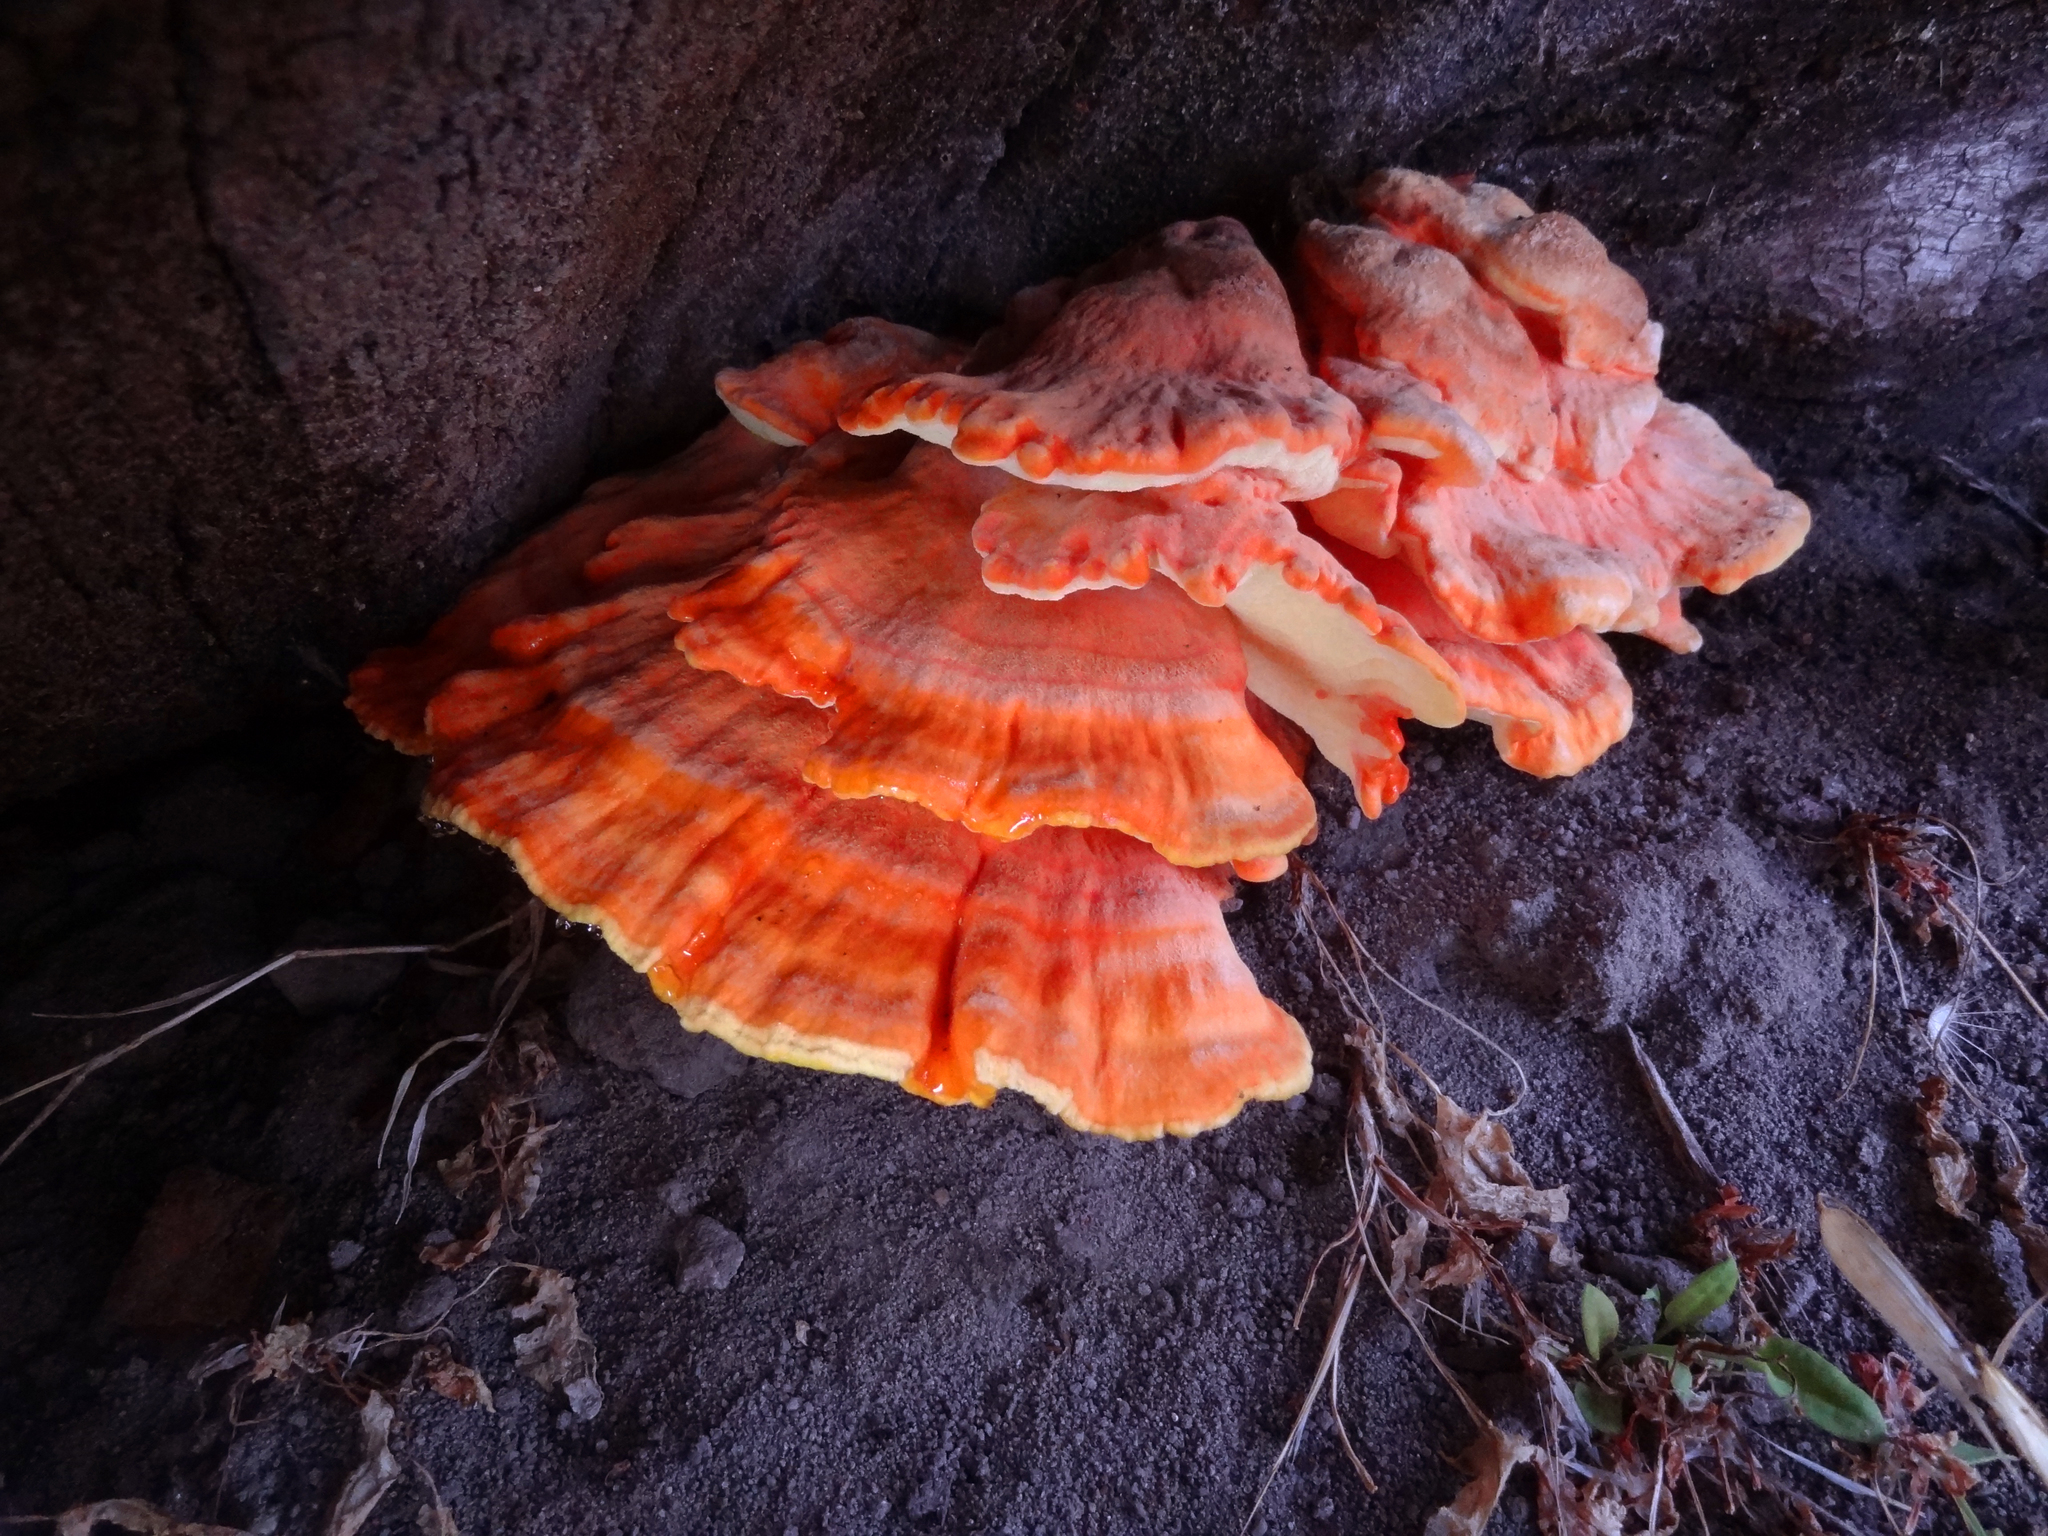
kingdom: Fungi
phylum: Basidiomycota
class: Agaricomycetes
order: Polyporales
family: Laetiporaceae
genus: Laetiporus
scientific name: Laetiporus gilbertsonii
